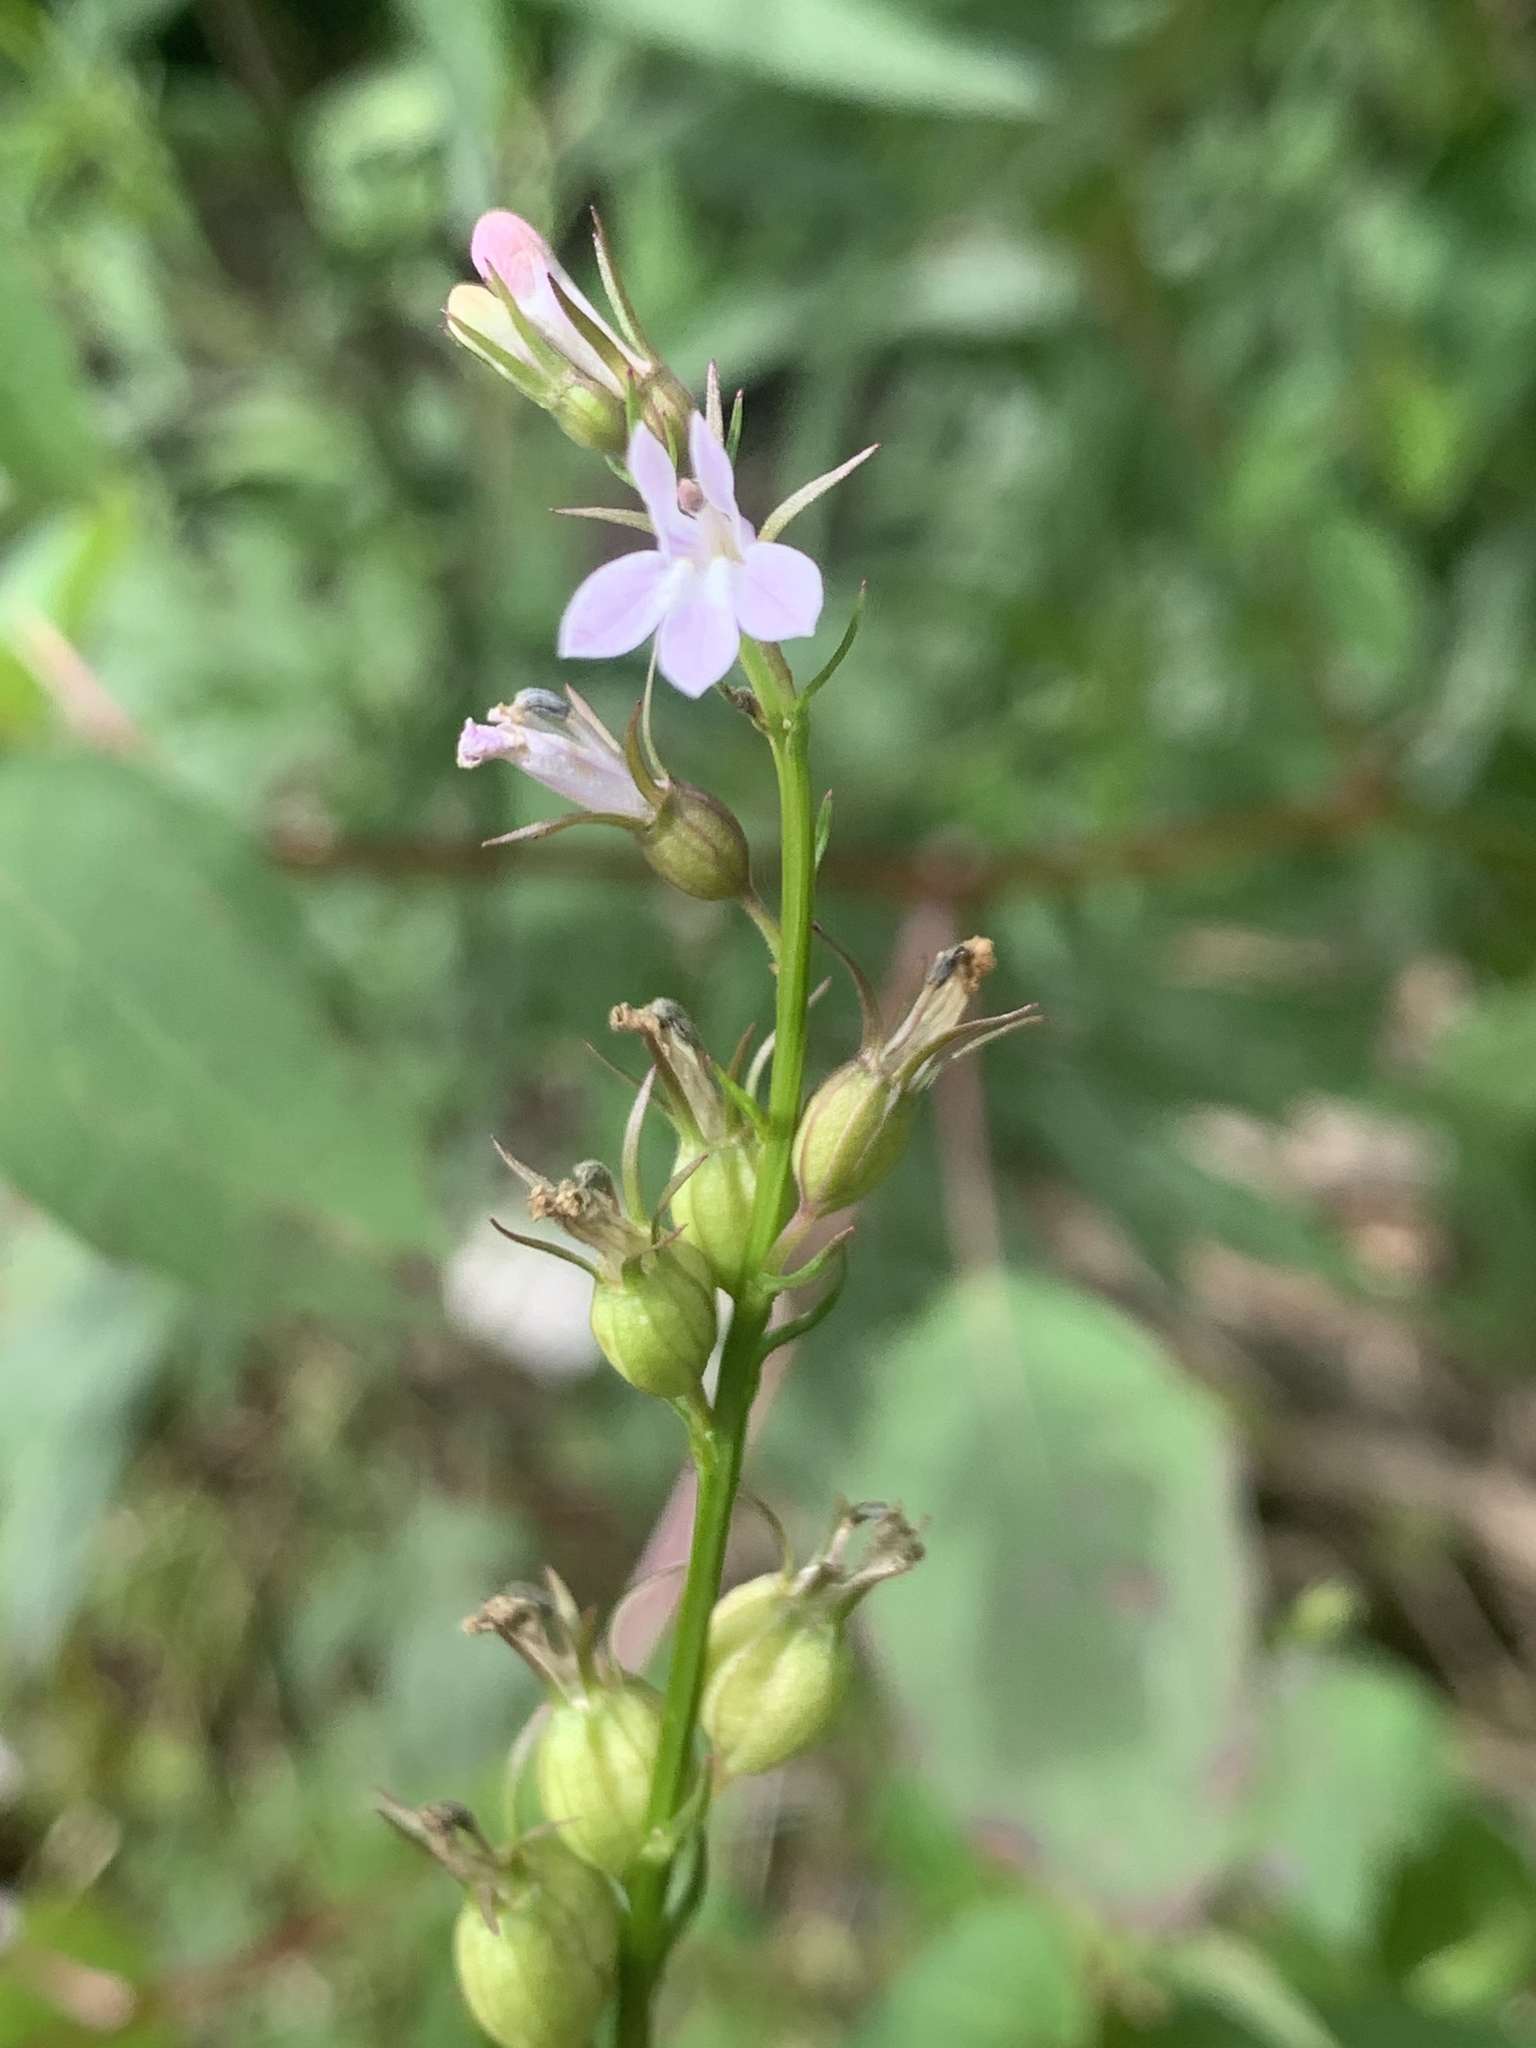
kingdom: Plantae
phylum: Tracheophyta
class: Magnoliopsida
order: Asterales
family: Campanulaceae
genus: Lobelia
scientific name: Lobelia inflata
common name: Indian tobacco
